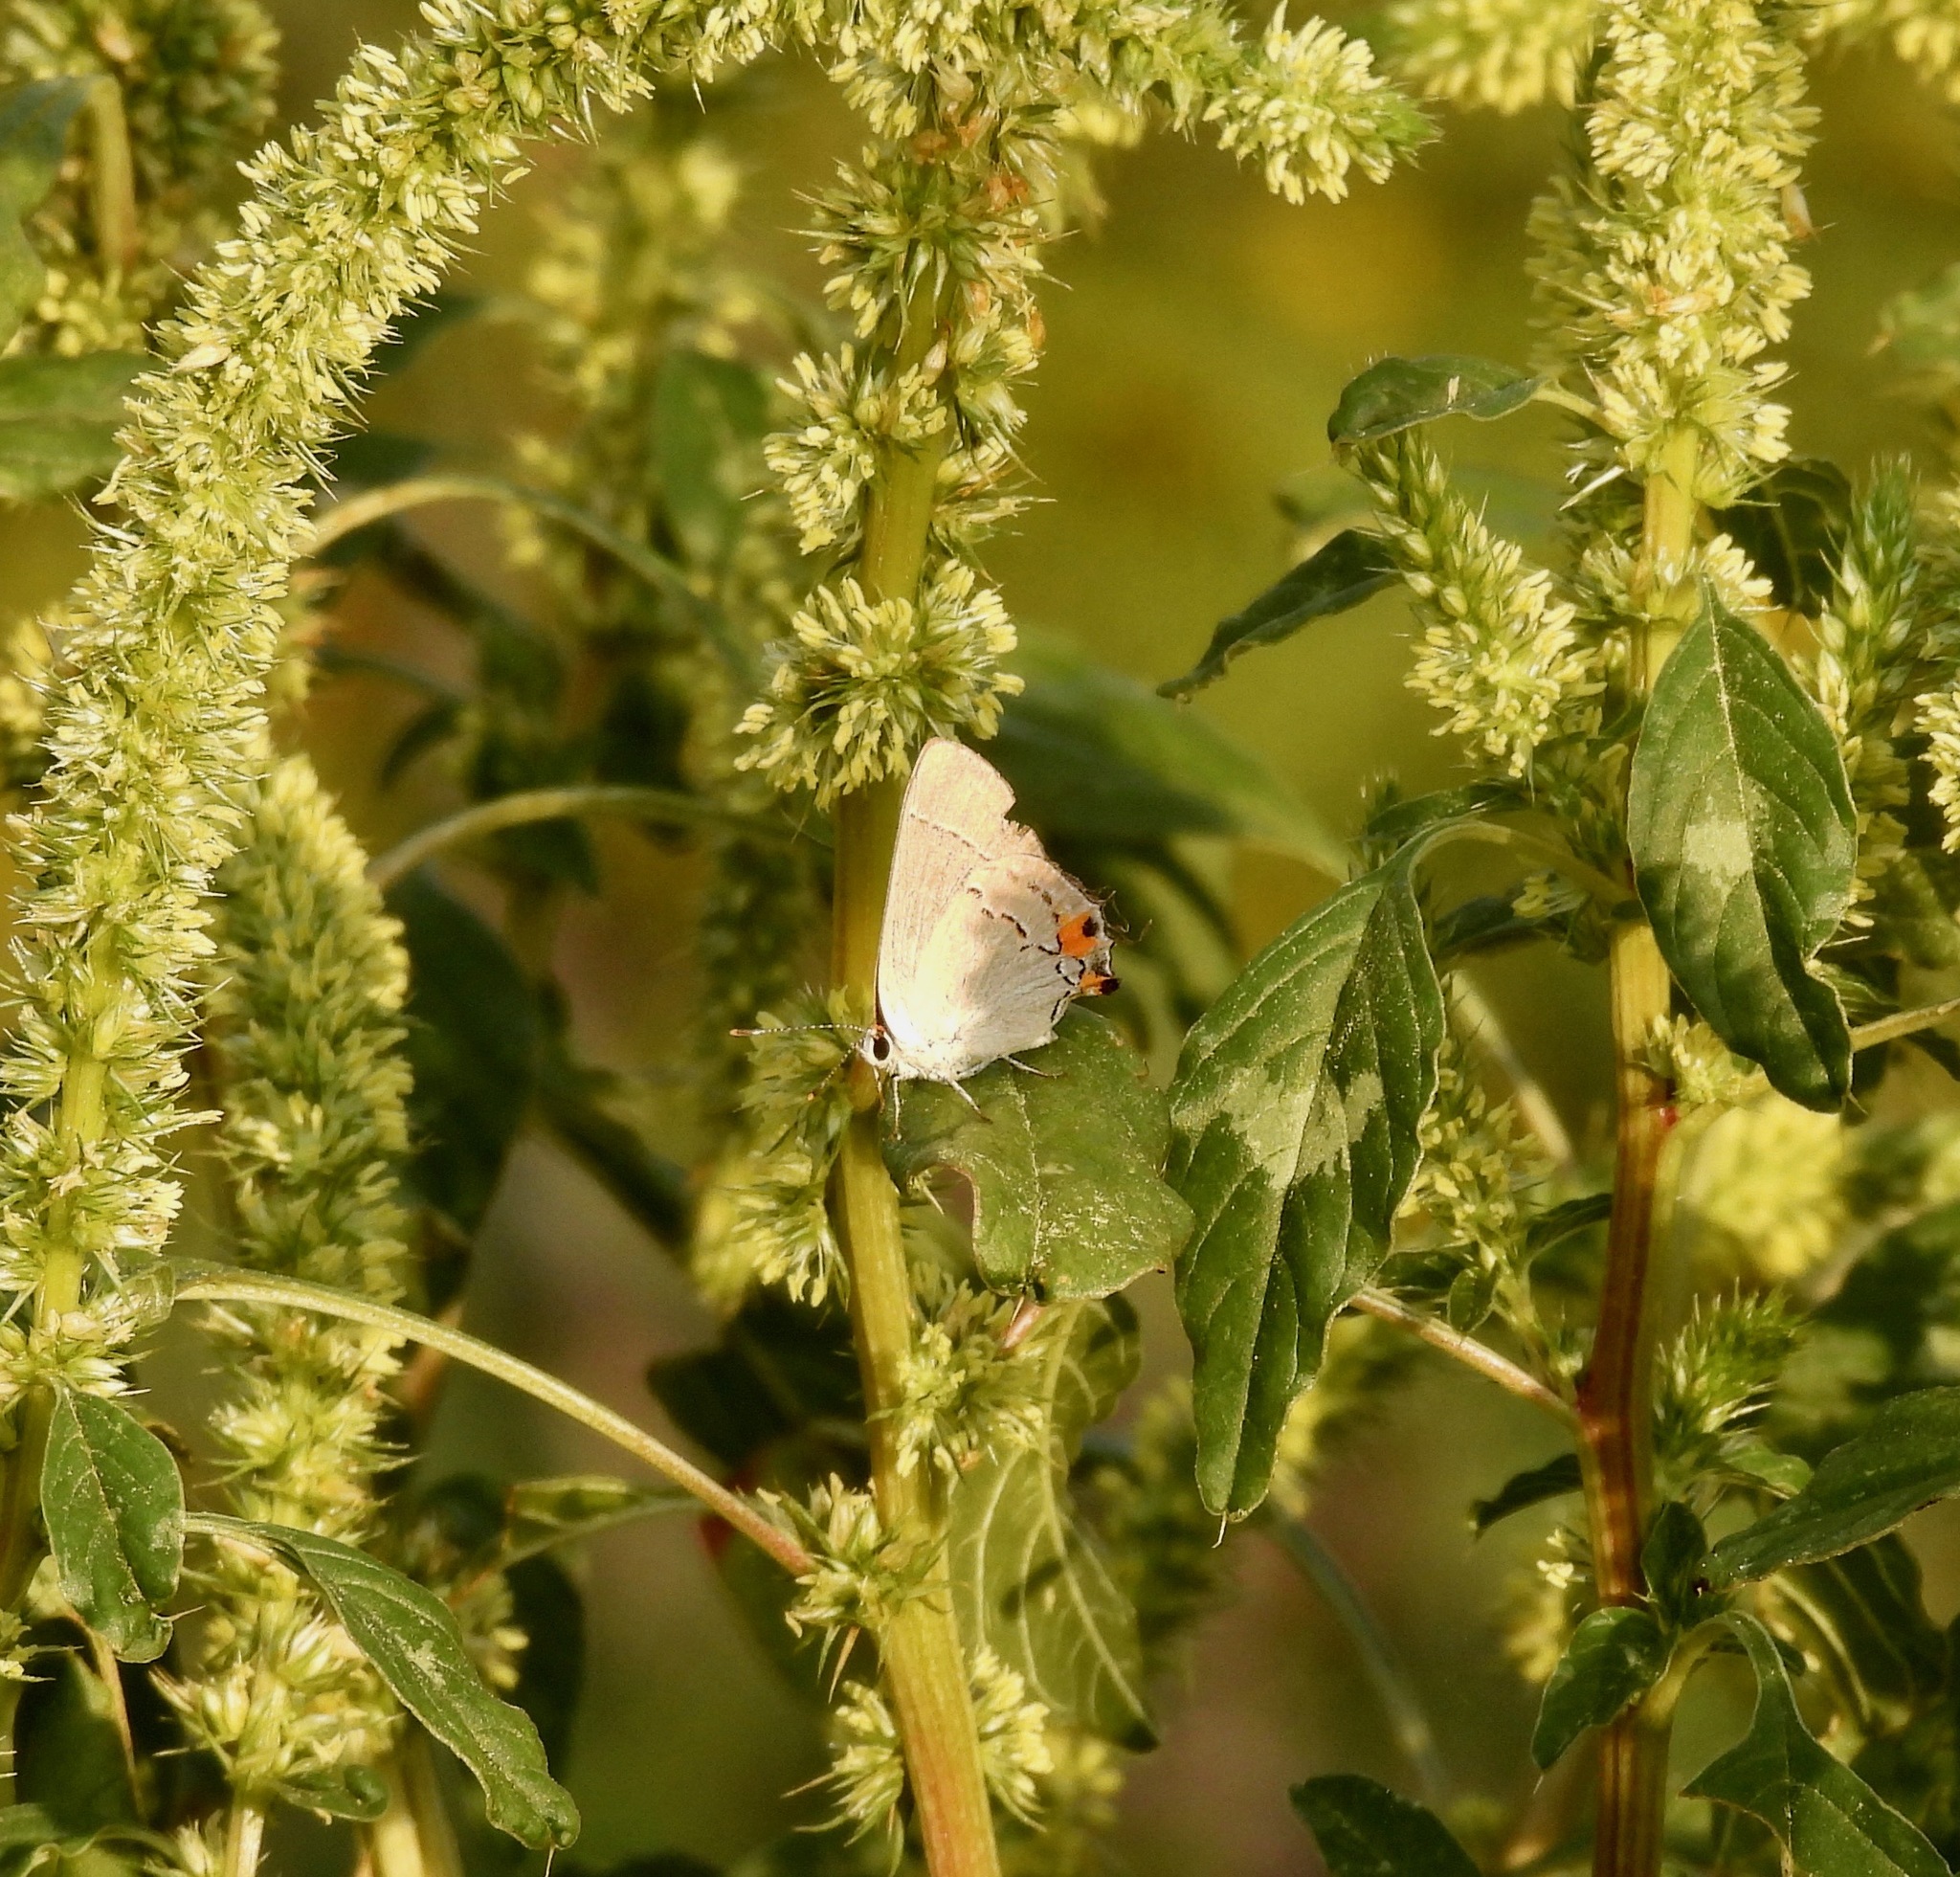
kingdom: Animalia
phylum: Arthropoda
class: Insecta
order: Lepidoptera
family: Lycaenidae
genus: Strymon
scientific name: Strymon melinus
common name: Gray hairstreak
